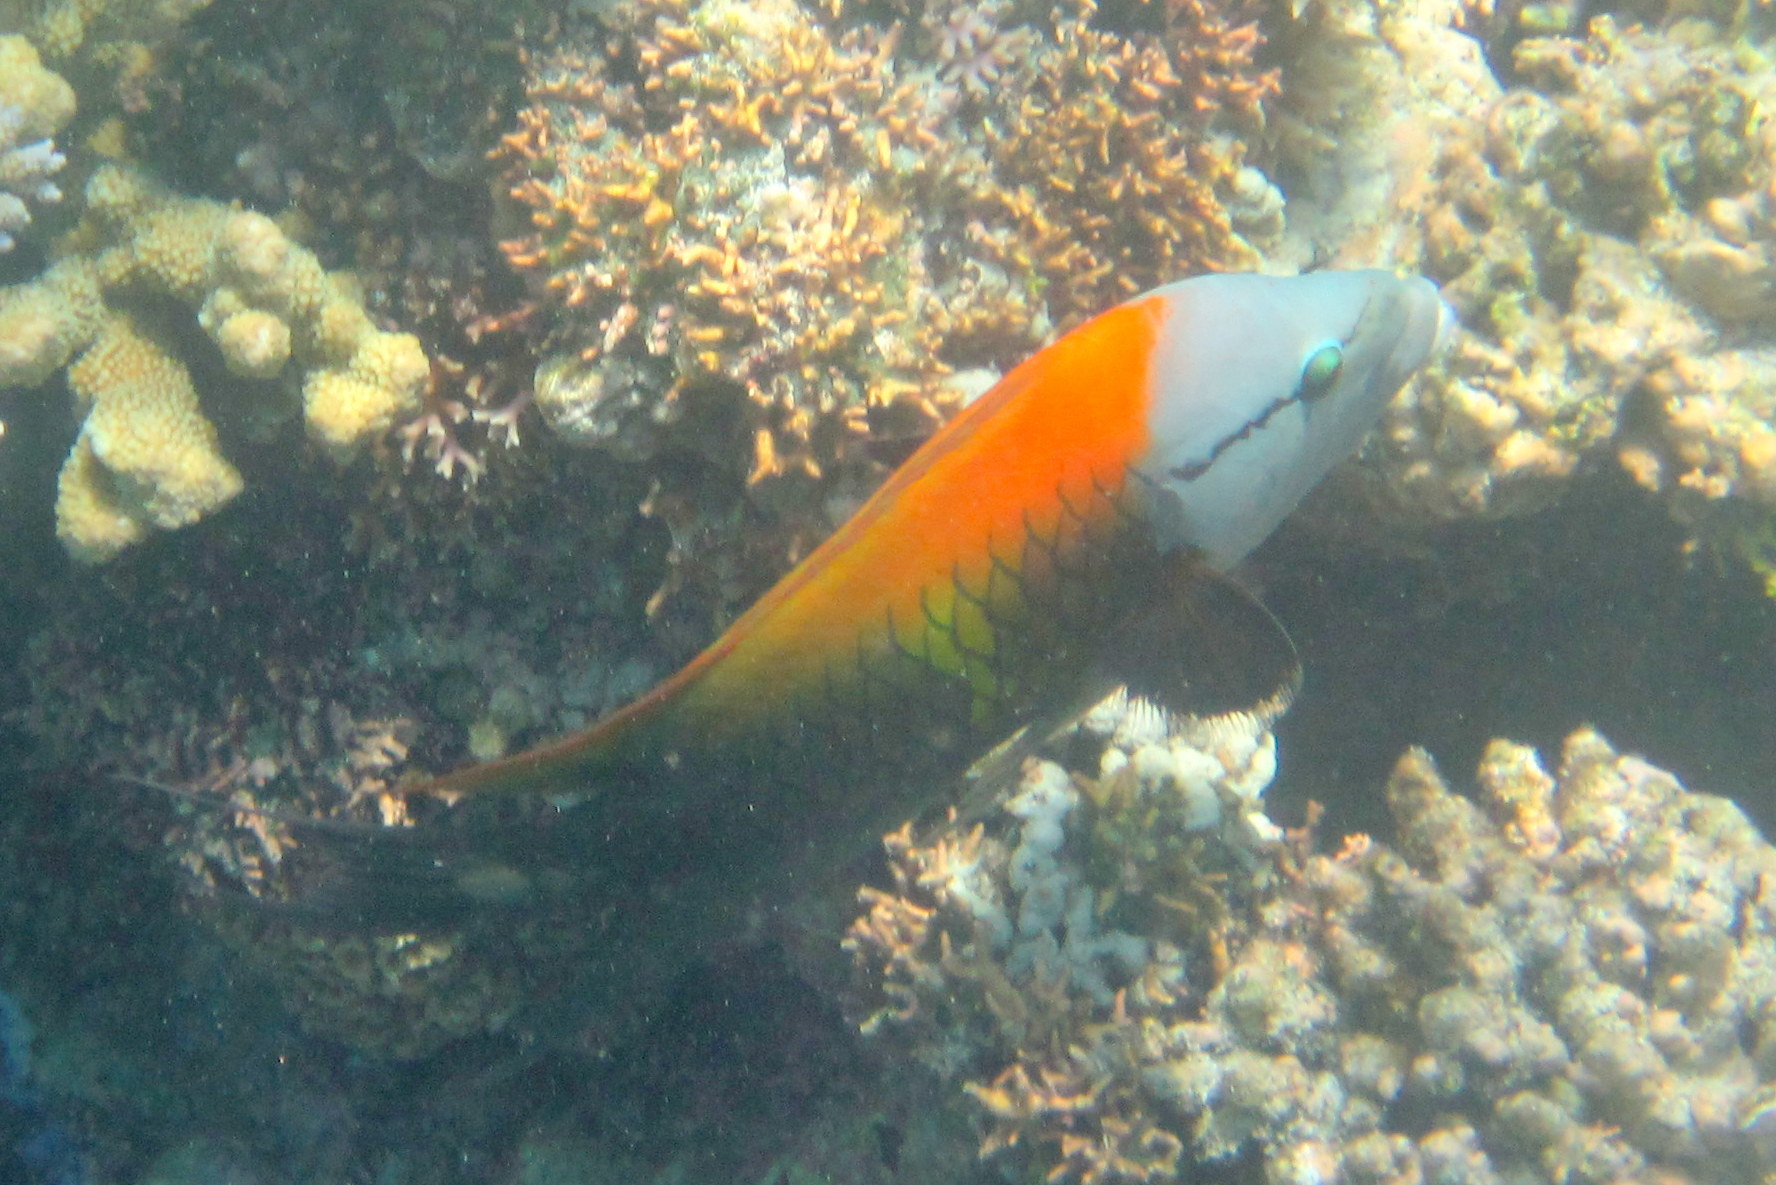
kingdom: Animalia
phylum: Chordata
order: Perciformes
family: Labridae
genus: Epibulus
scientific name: Epibulus insidiator
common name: Slingjaw wrasse
